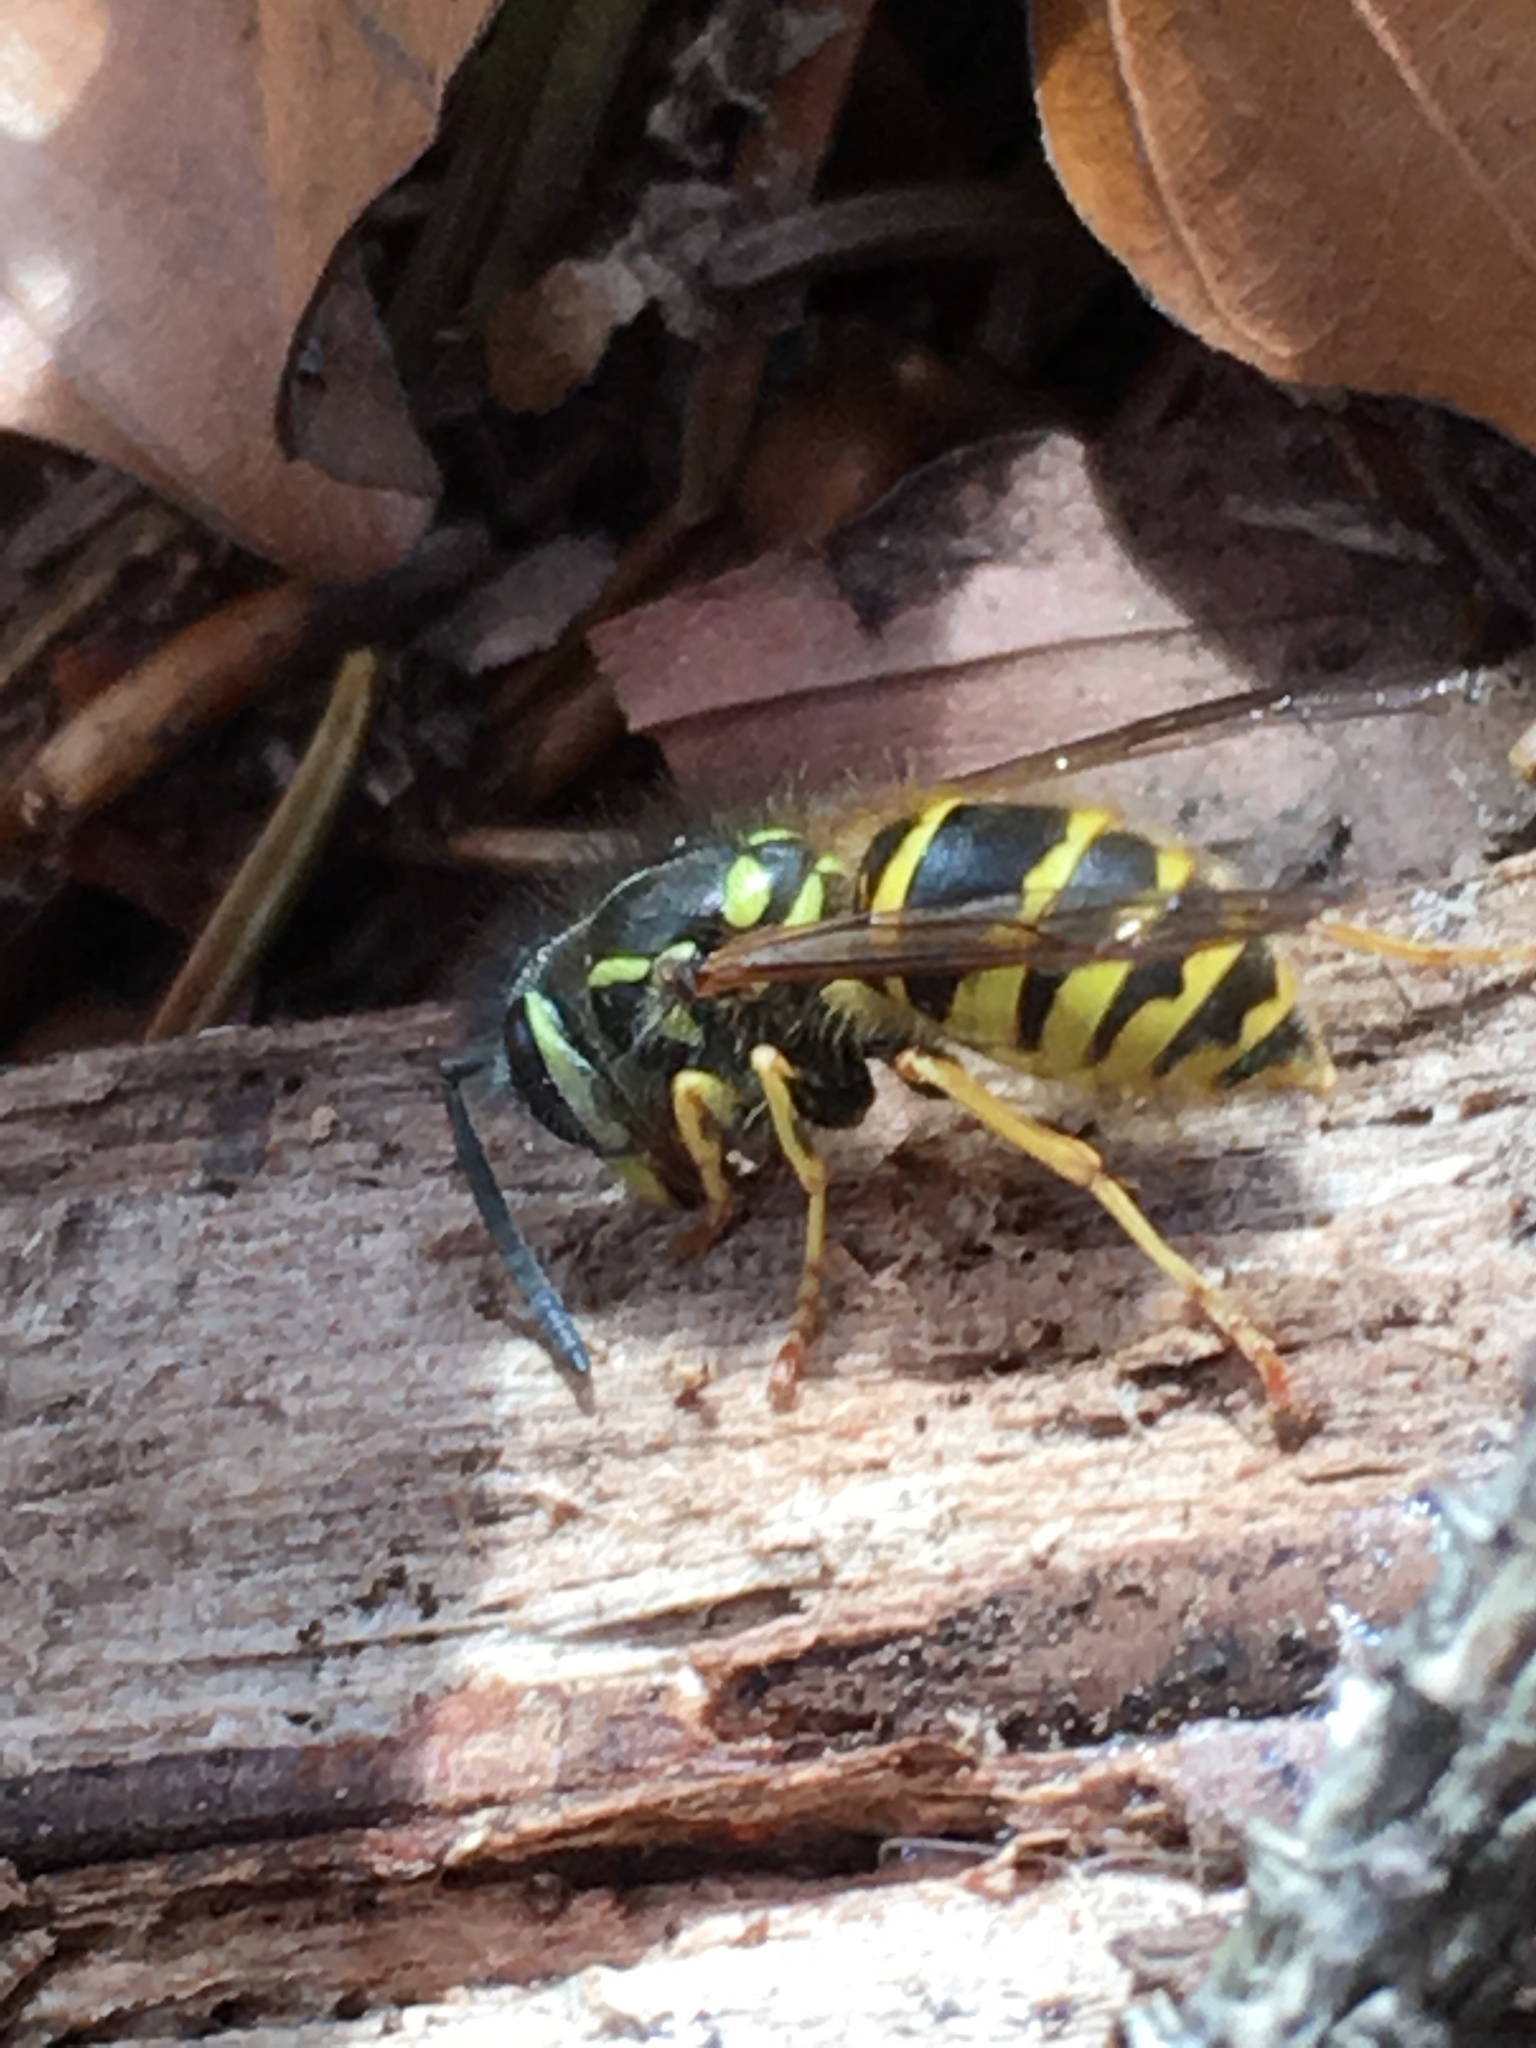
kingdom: Animalia
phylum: Arthropoda
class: Insecta
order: Hymenoptera
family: Vespidae
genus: Vespula
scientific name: Vespula vulgaris
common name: Common wasp
